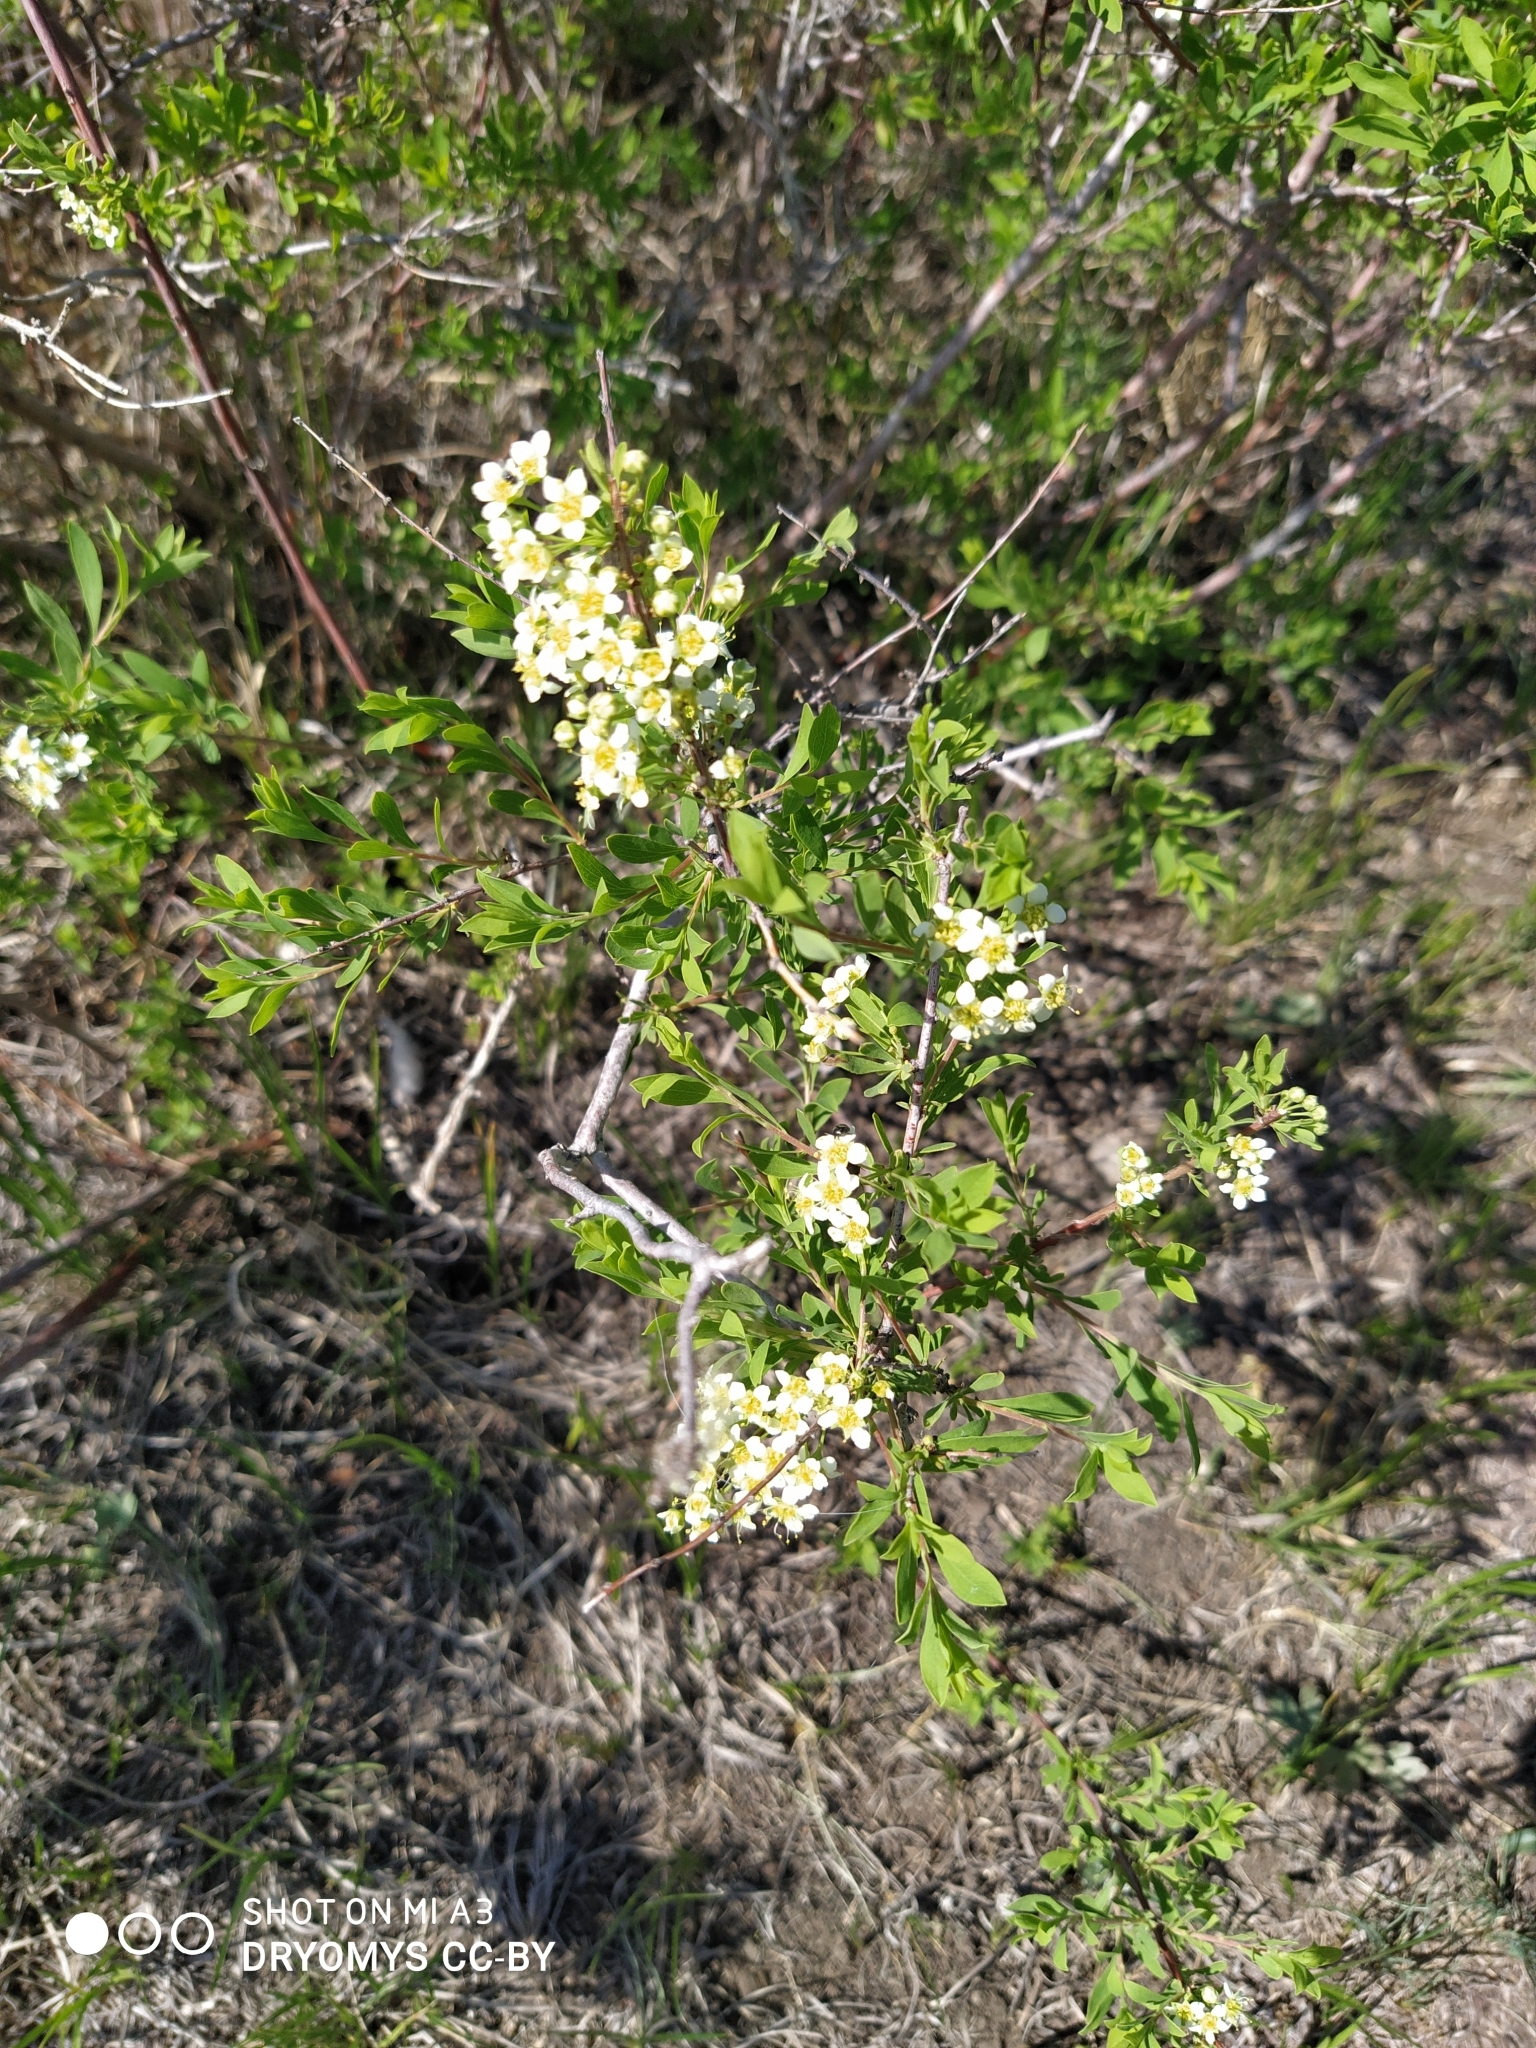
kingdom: Plantae
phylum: Tracheophyta
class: Magnoliopsida
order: Rosales
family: Rosaceae
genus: Spiraea
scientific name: Spiraea hypericifolia
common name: Iberian spirea
